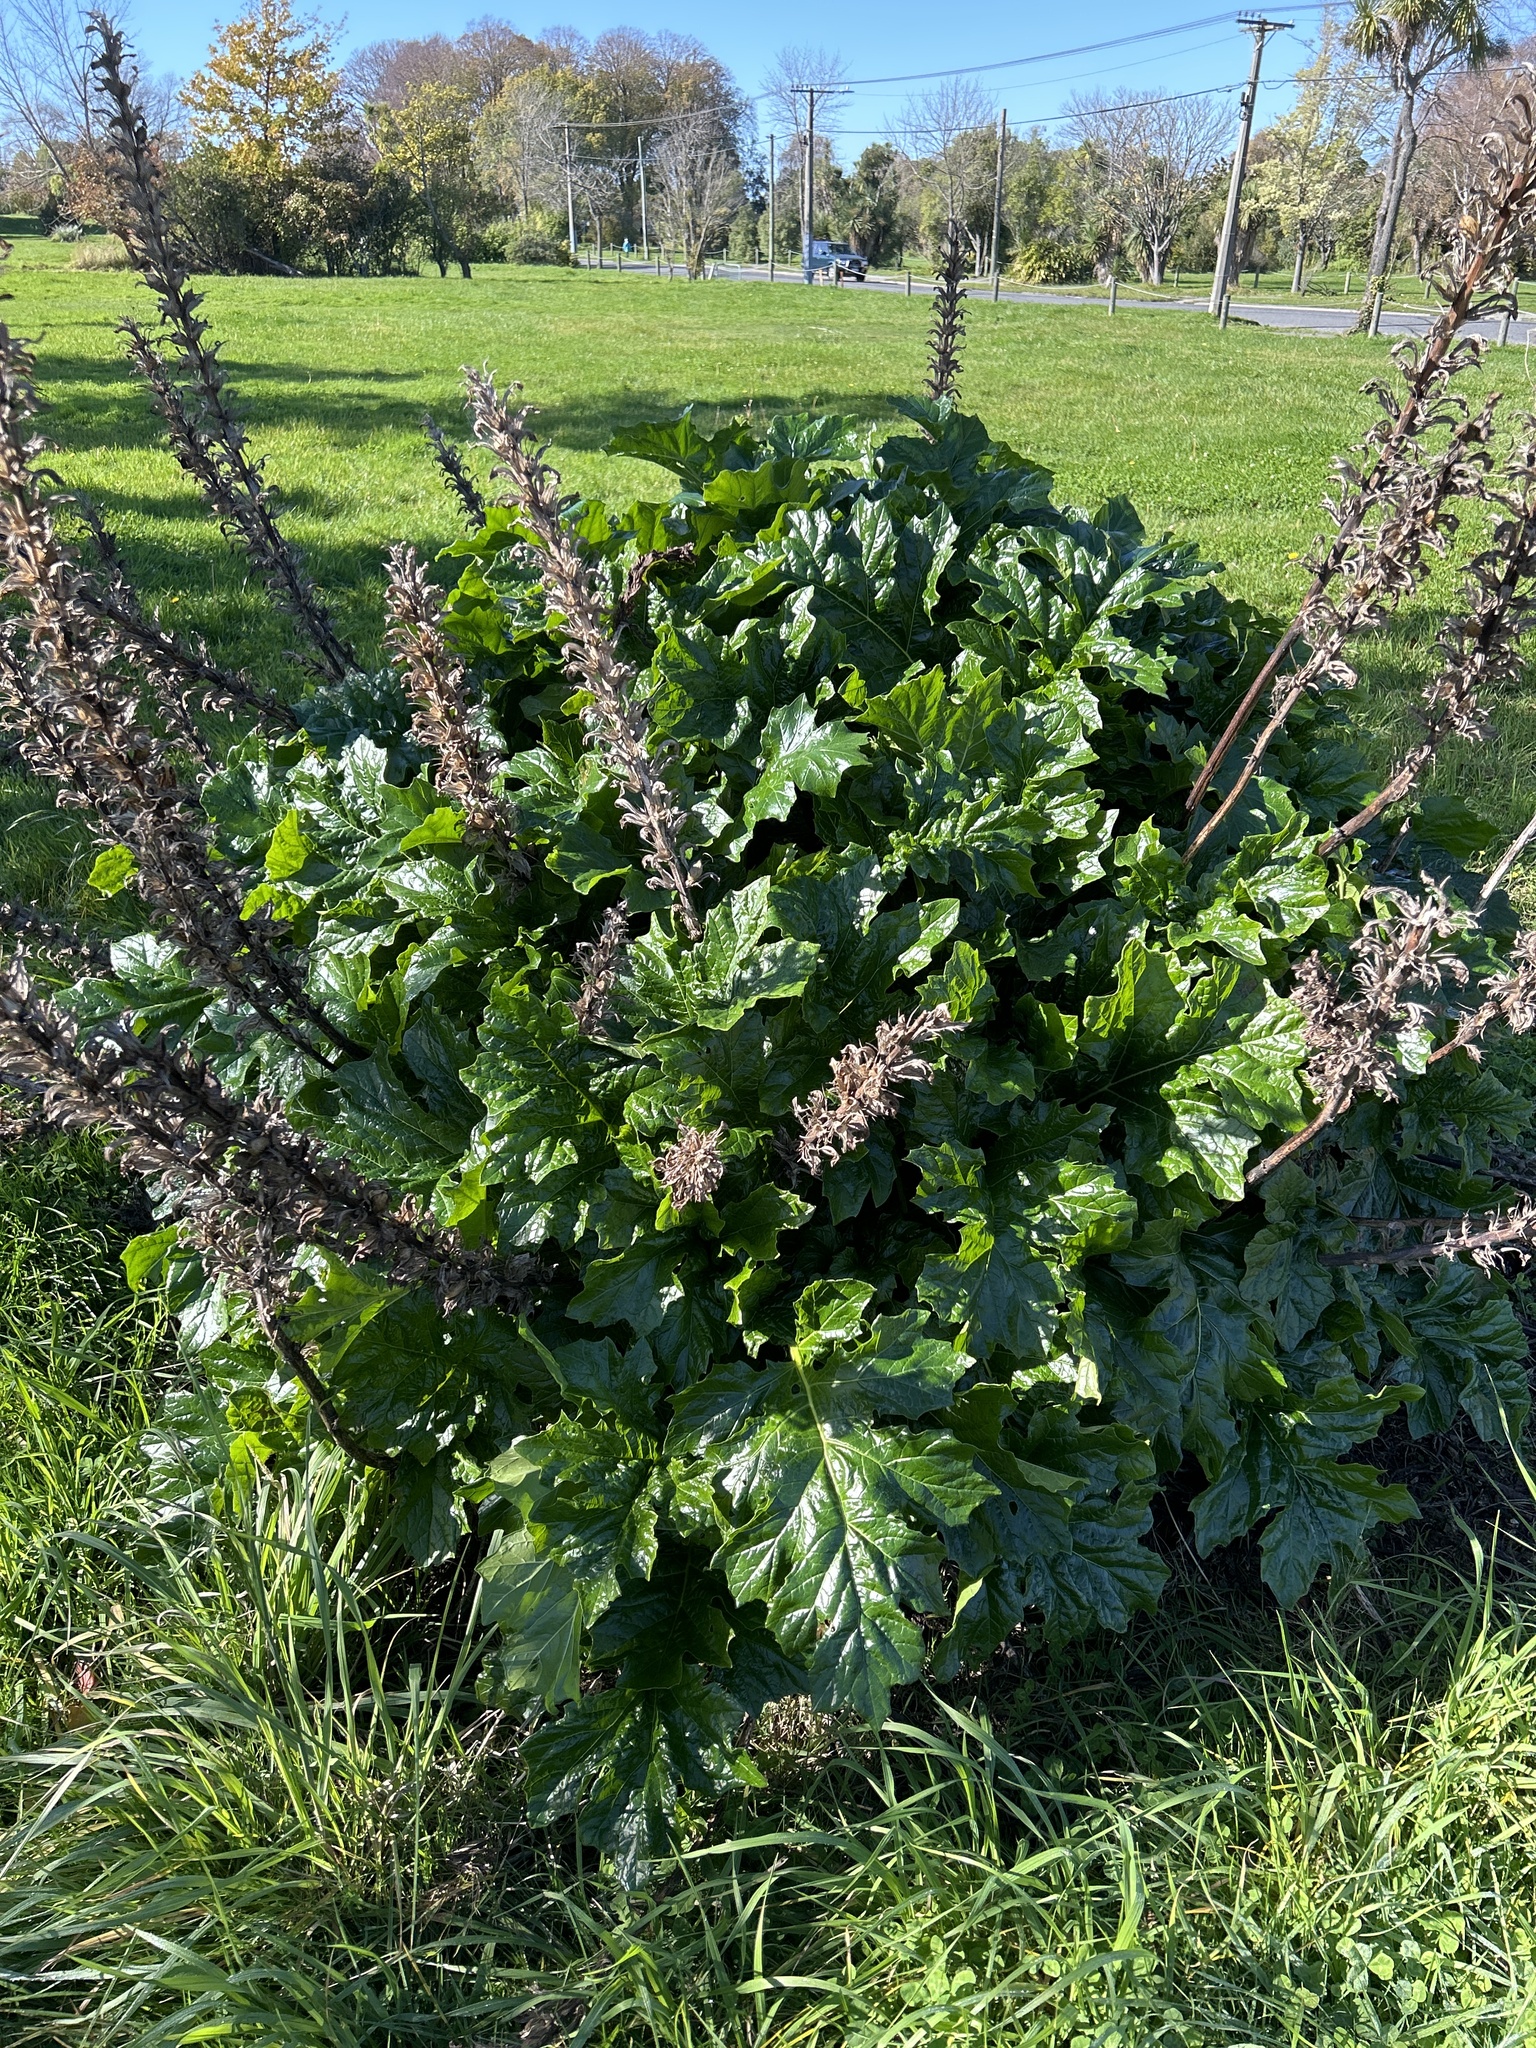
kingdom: Plantae
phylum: Tracheophyta
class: Magnoliopsida
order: Lamiales
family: Acanthaceae
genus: Acanthus
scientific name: Acanthus mollis
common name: Bear's-breech
